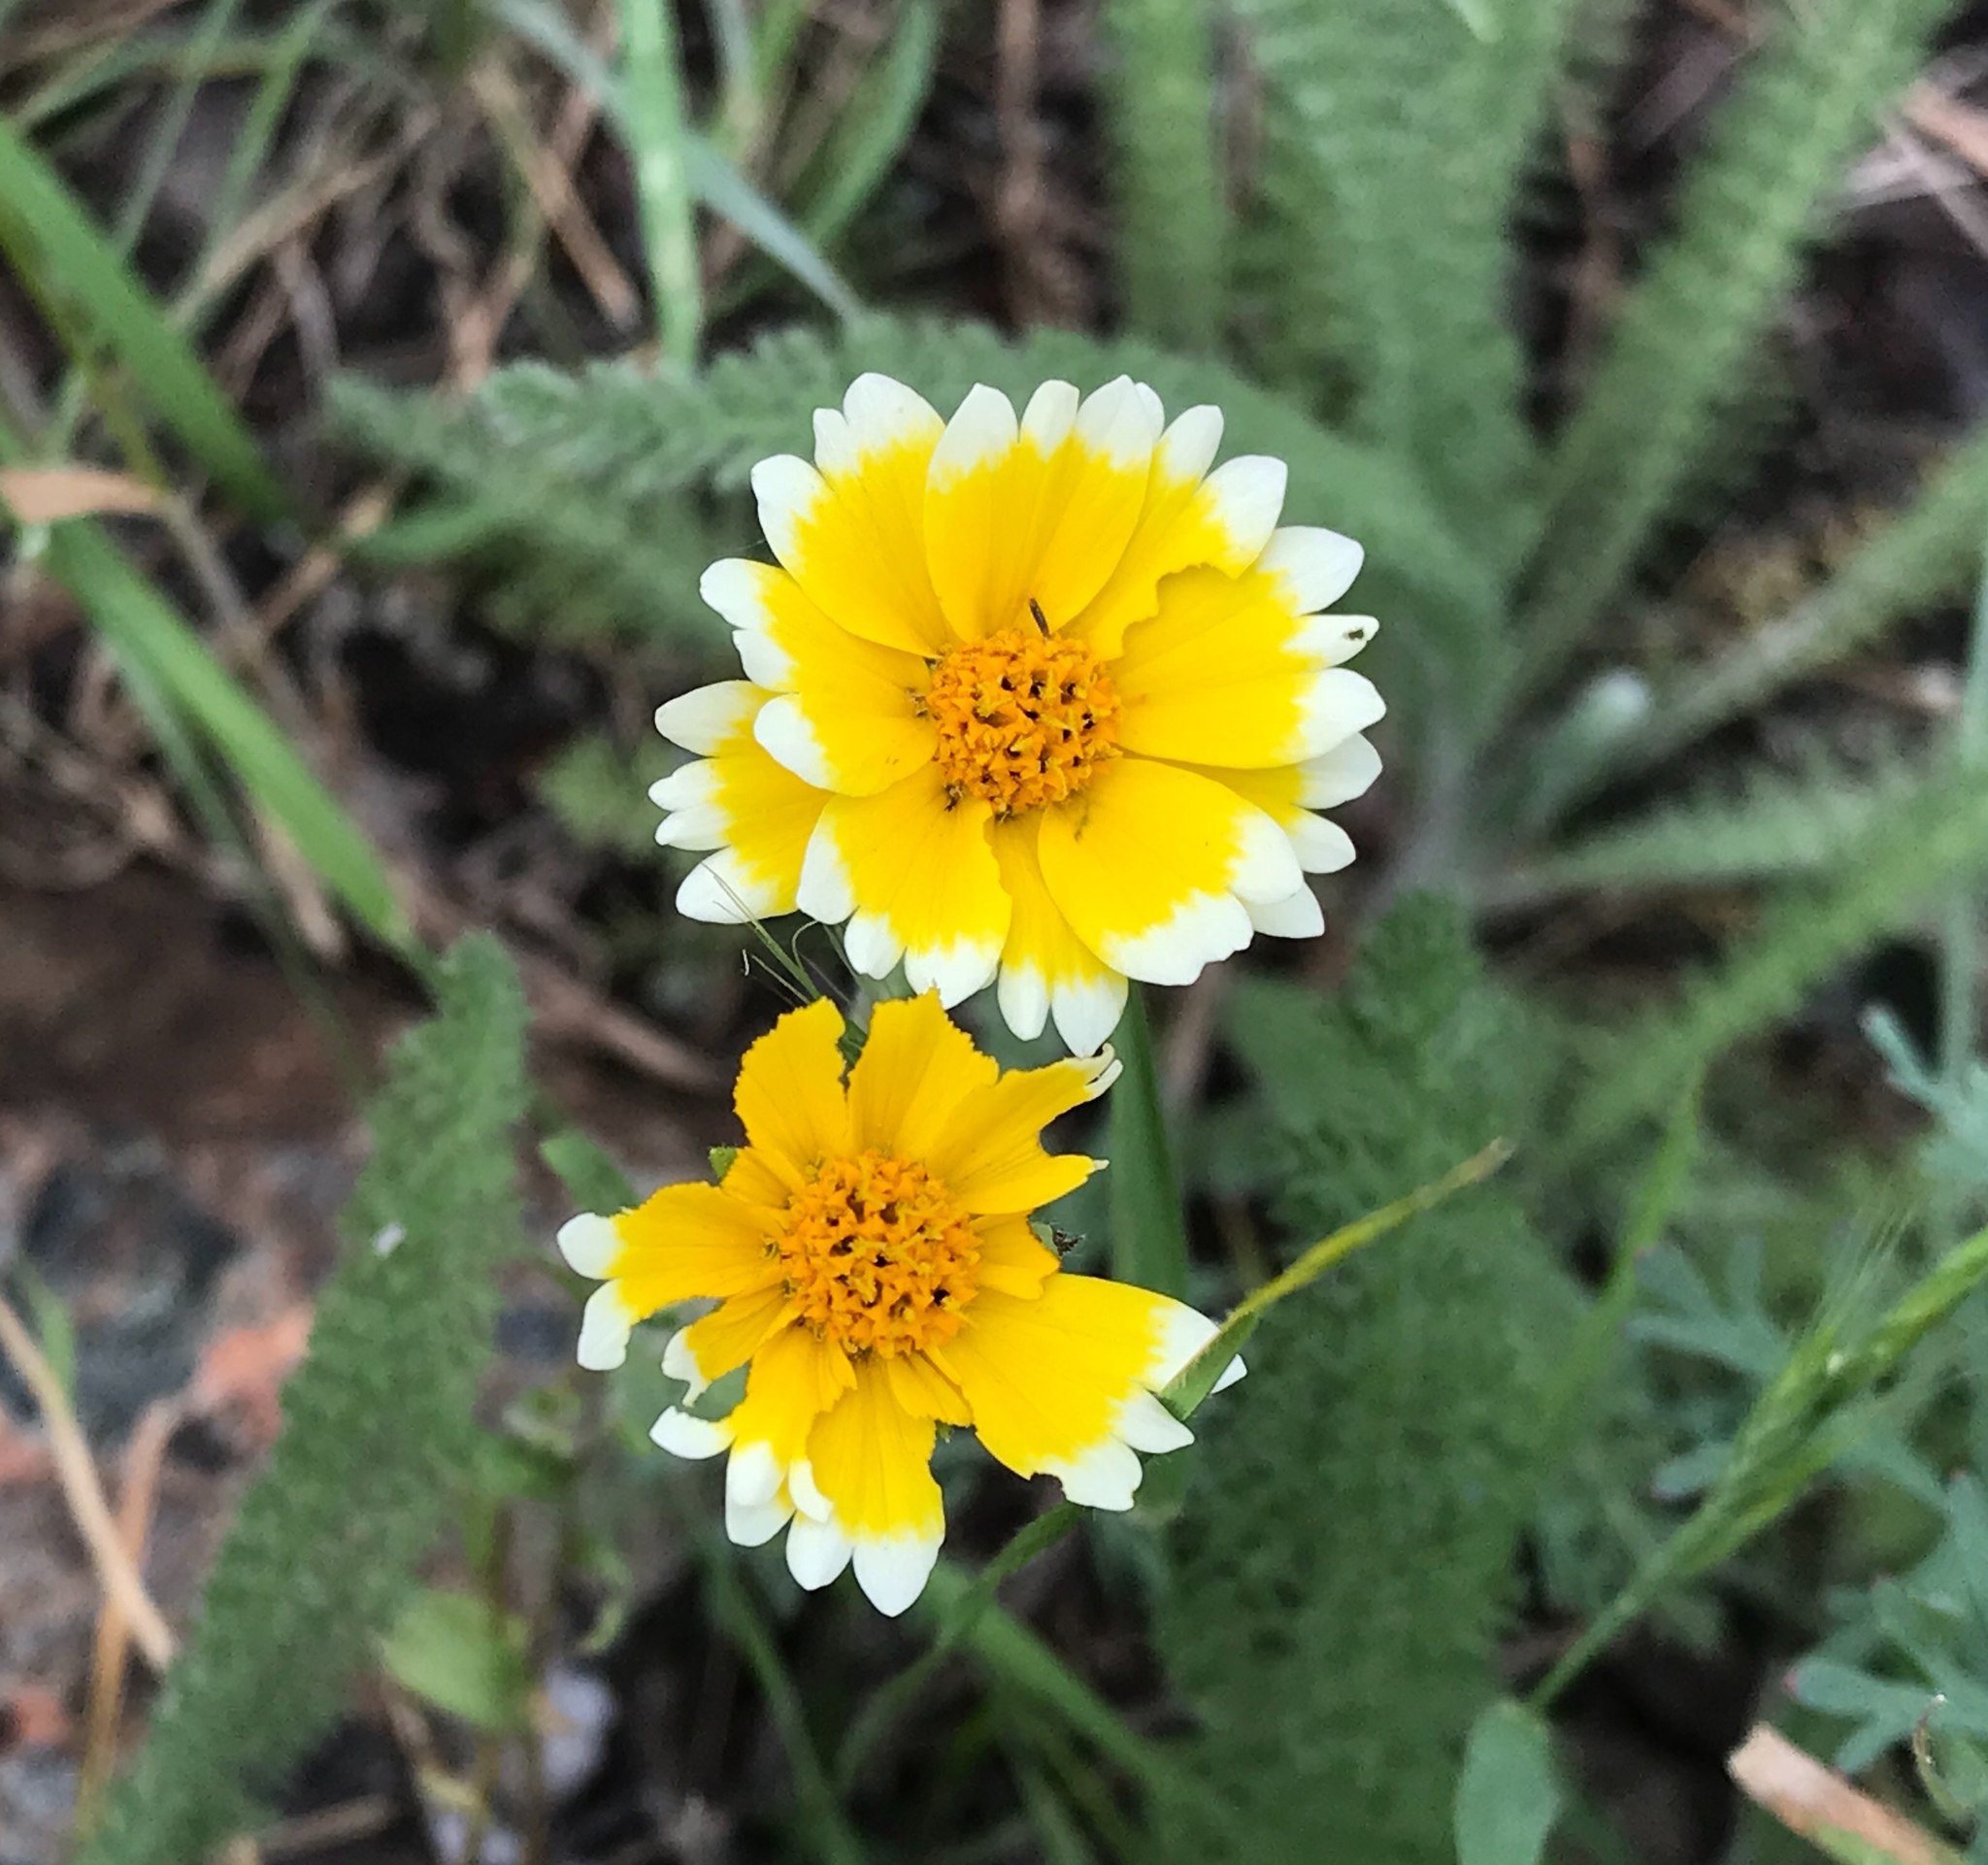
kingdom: Plantae
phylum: Tracheophyta
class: Magnoliopsida
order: Asterales
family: Asteraceae
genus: Layia
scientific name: Layia platyglossa
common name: Tidy-tips
